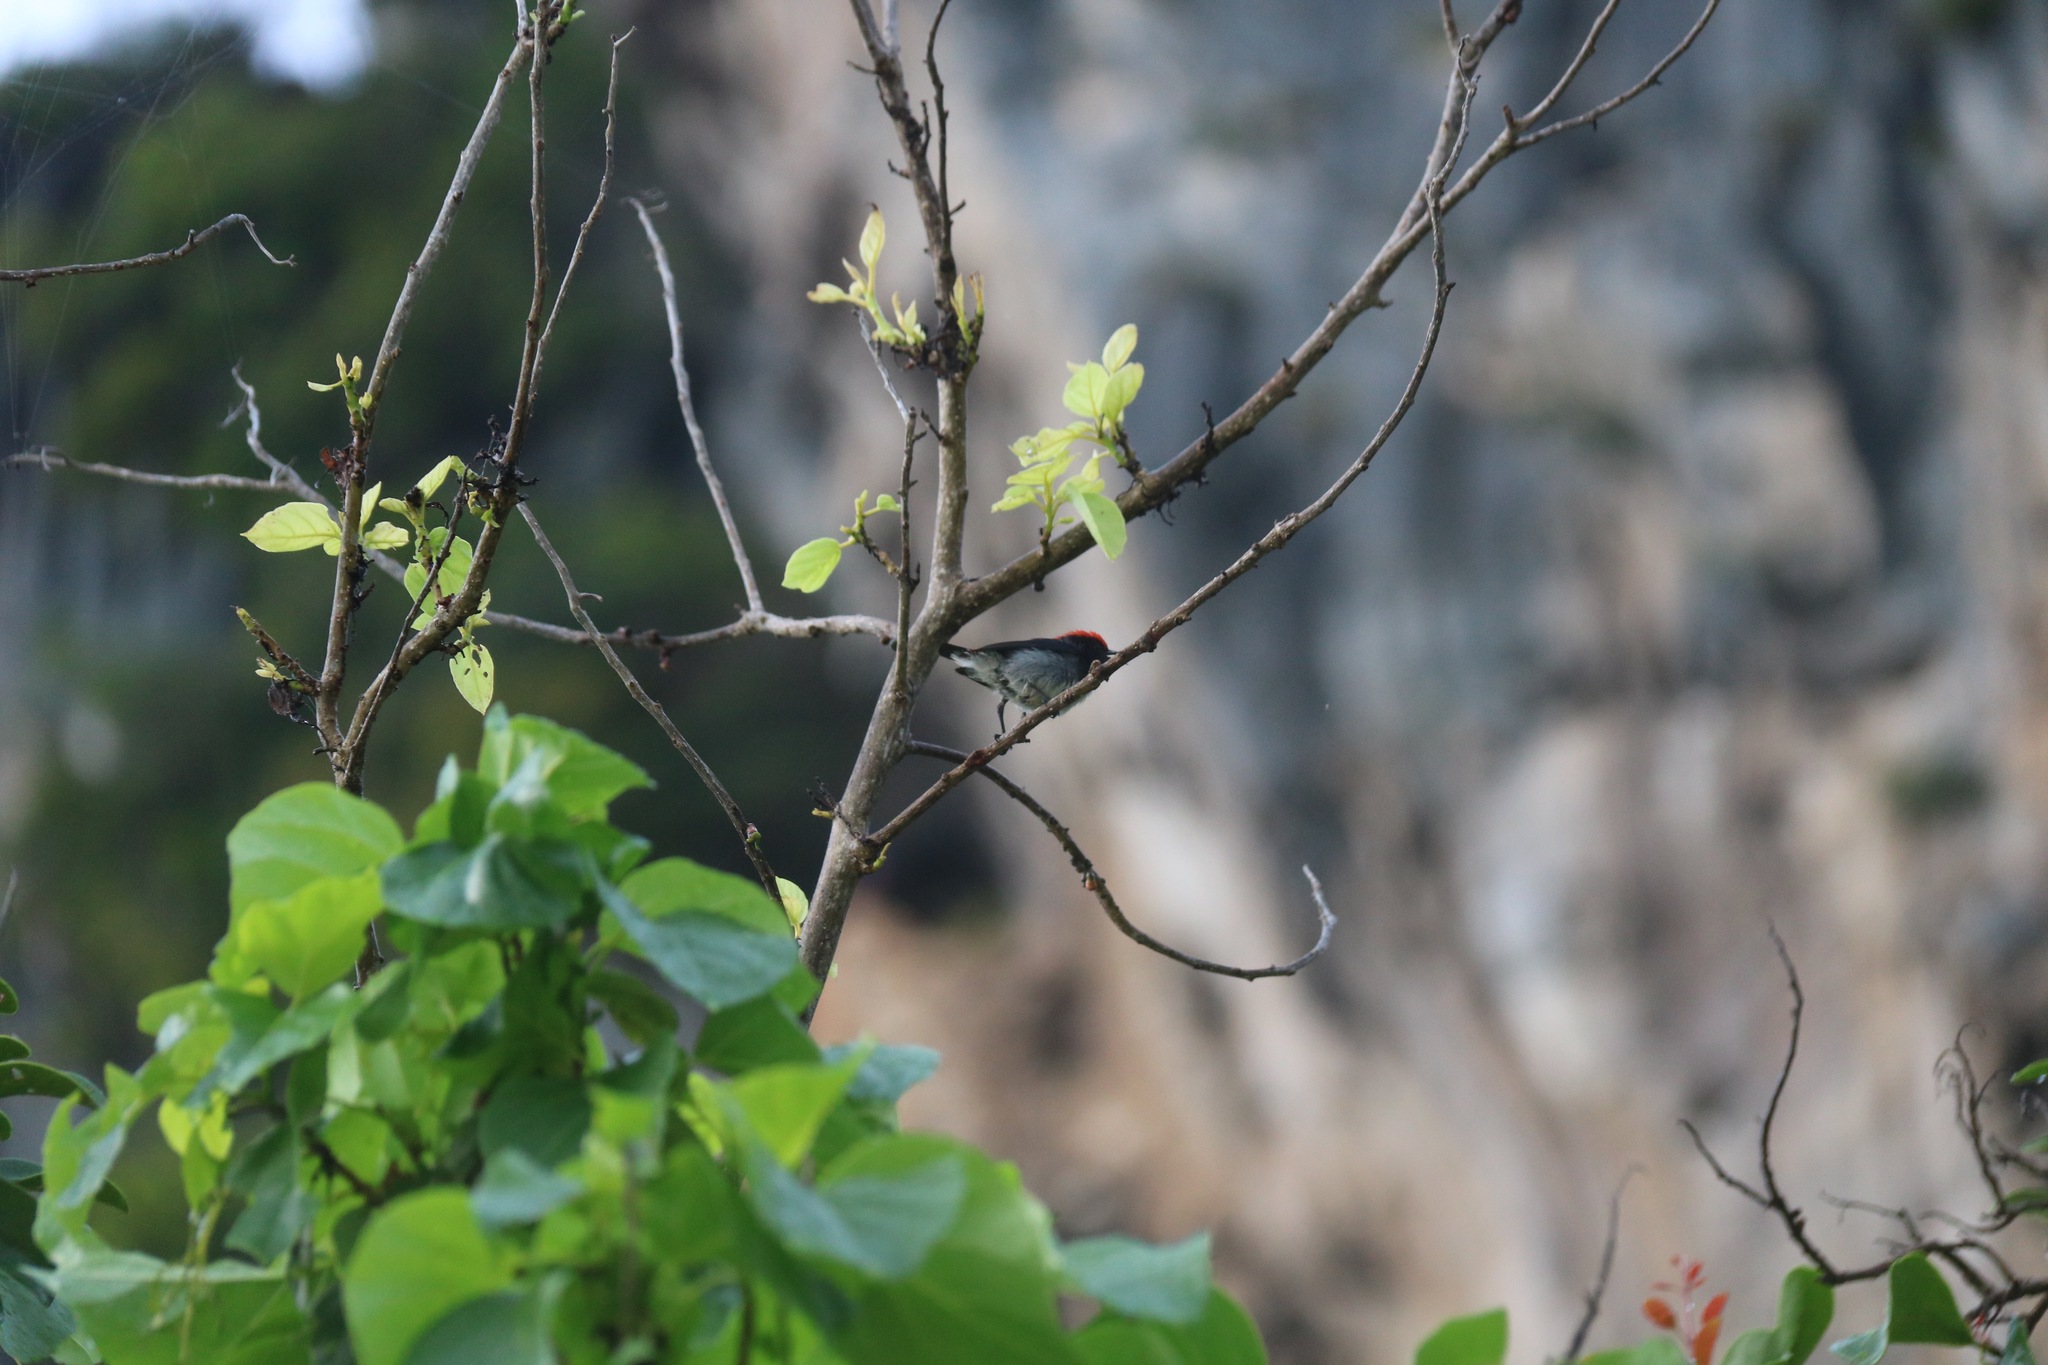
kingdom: Animalia
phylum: Chordata
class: Aves
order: Passeriformes
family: Dicaeidae
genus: Dicaeum
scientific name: Dicaeum cruentatum
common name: Scarlet-backed flowerpecker
